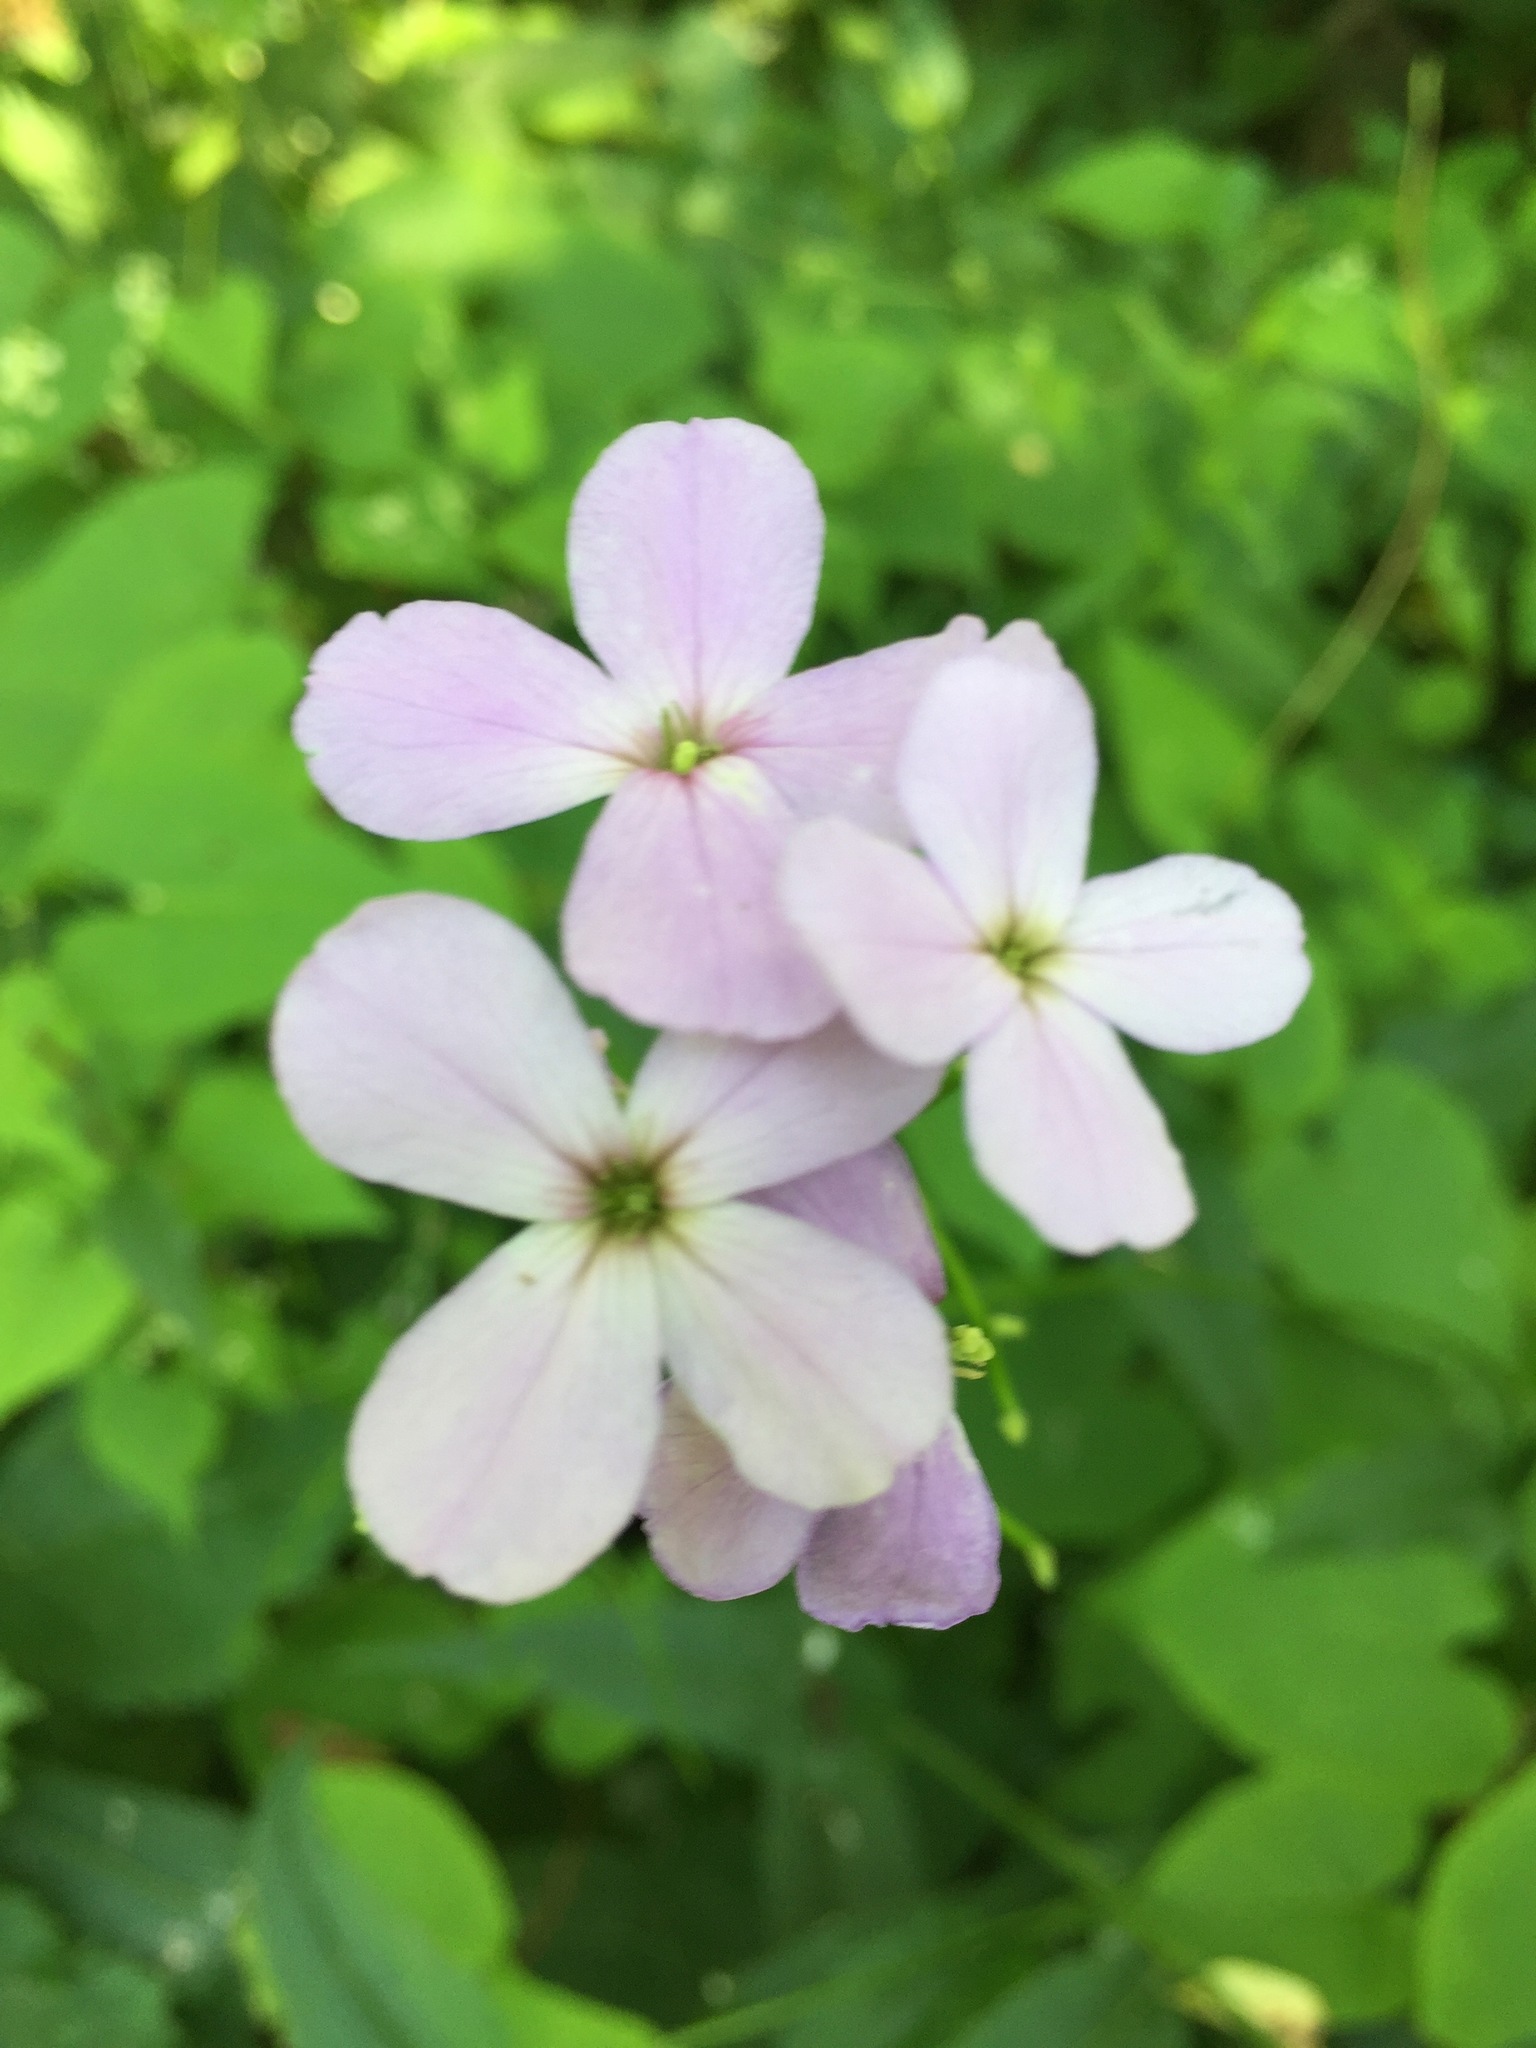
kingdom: Plantae
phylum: Tracheophyta
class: Magnoliopsida
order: Brassicales
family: Brassicaceae
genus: Hesperis
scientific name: Hesperis matronalis
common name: Dame's-violet
